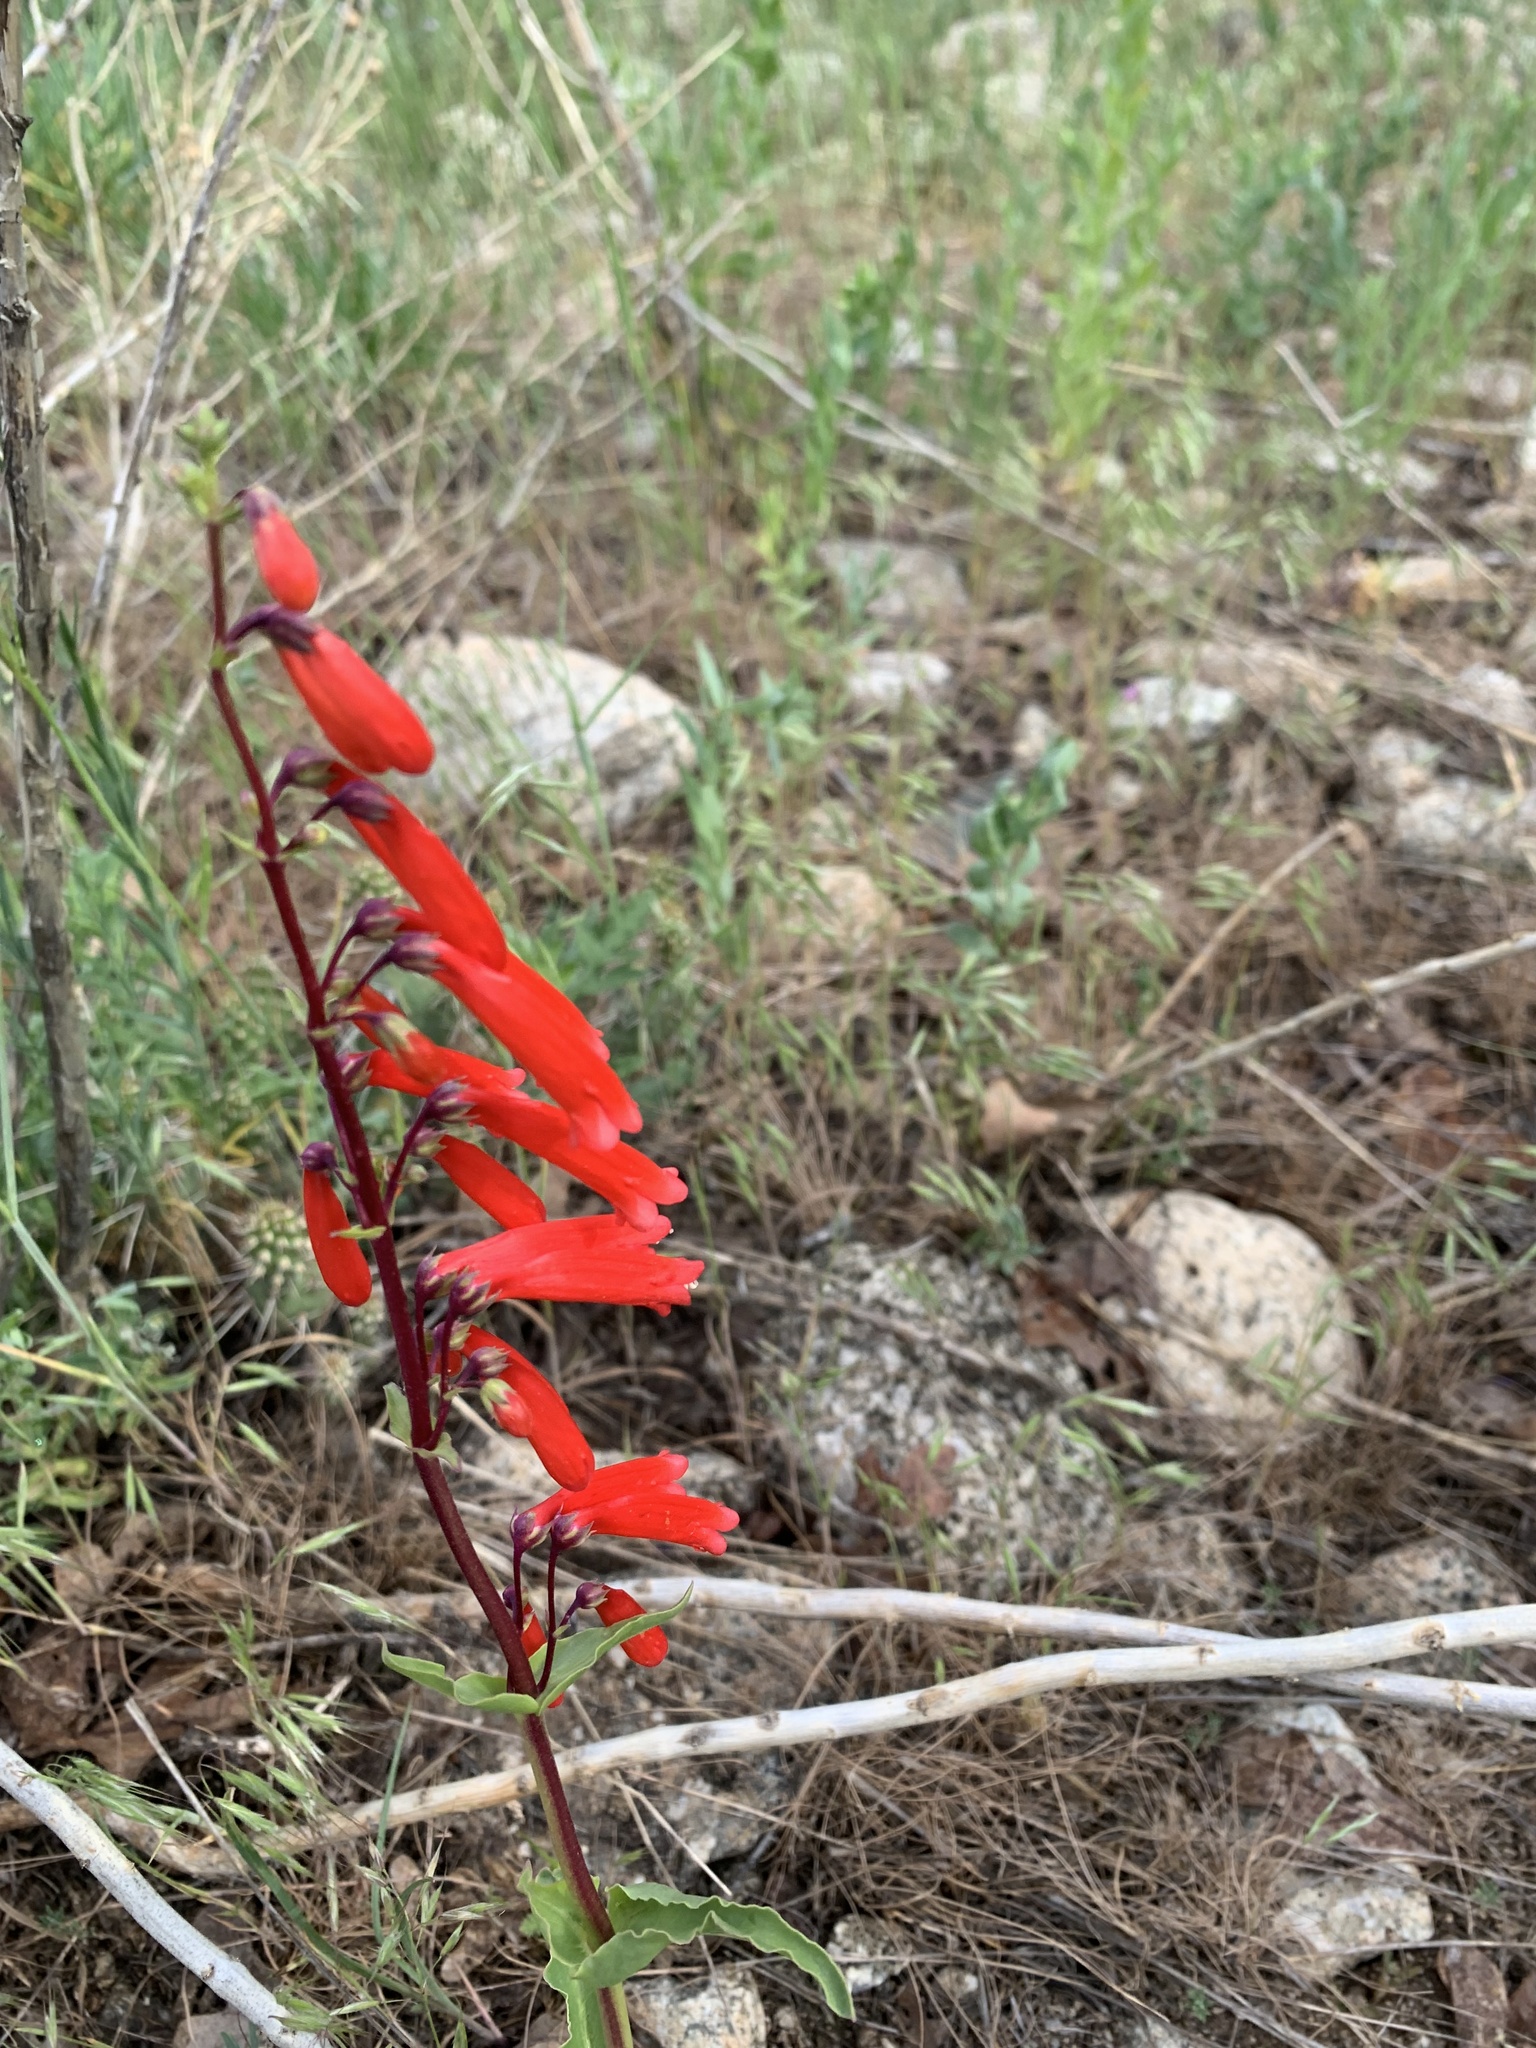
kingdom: Plantae
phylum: Tracheophyta
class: Magnoliopsida
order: Lamiales
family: Plantaginaceae
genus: Penstemon
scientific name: Penstemon eatonii
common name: Eaton's penstemon
